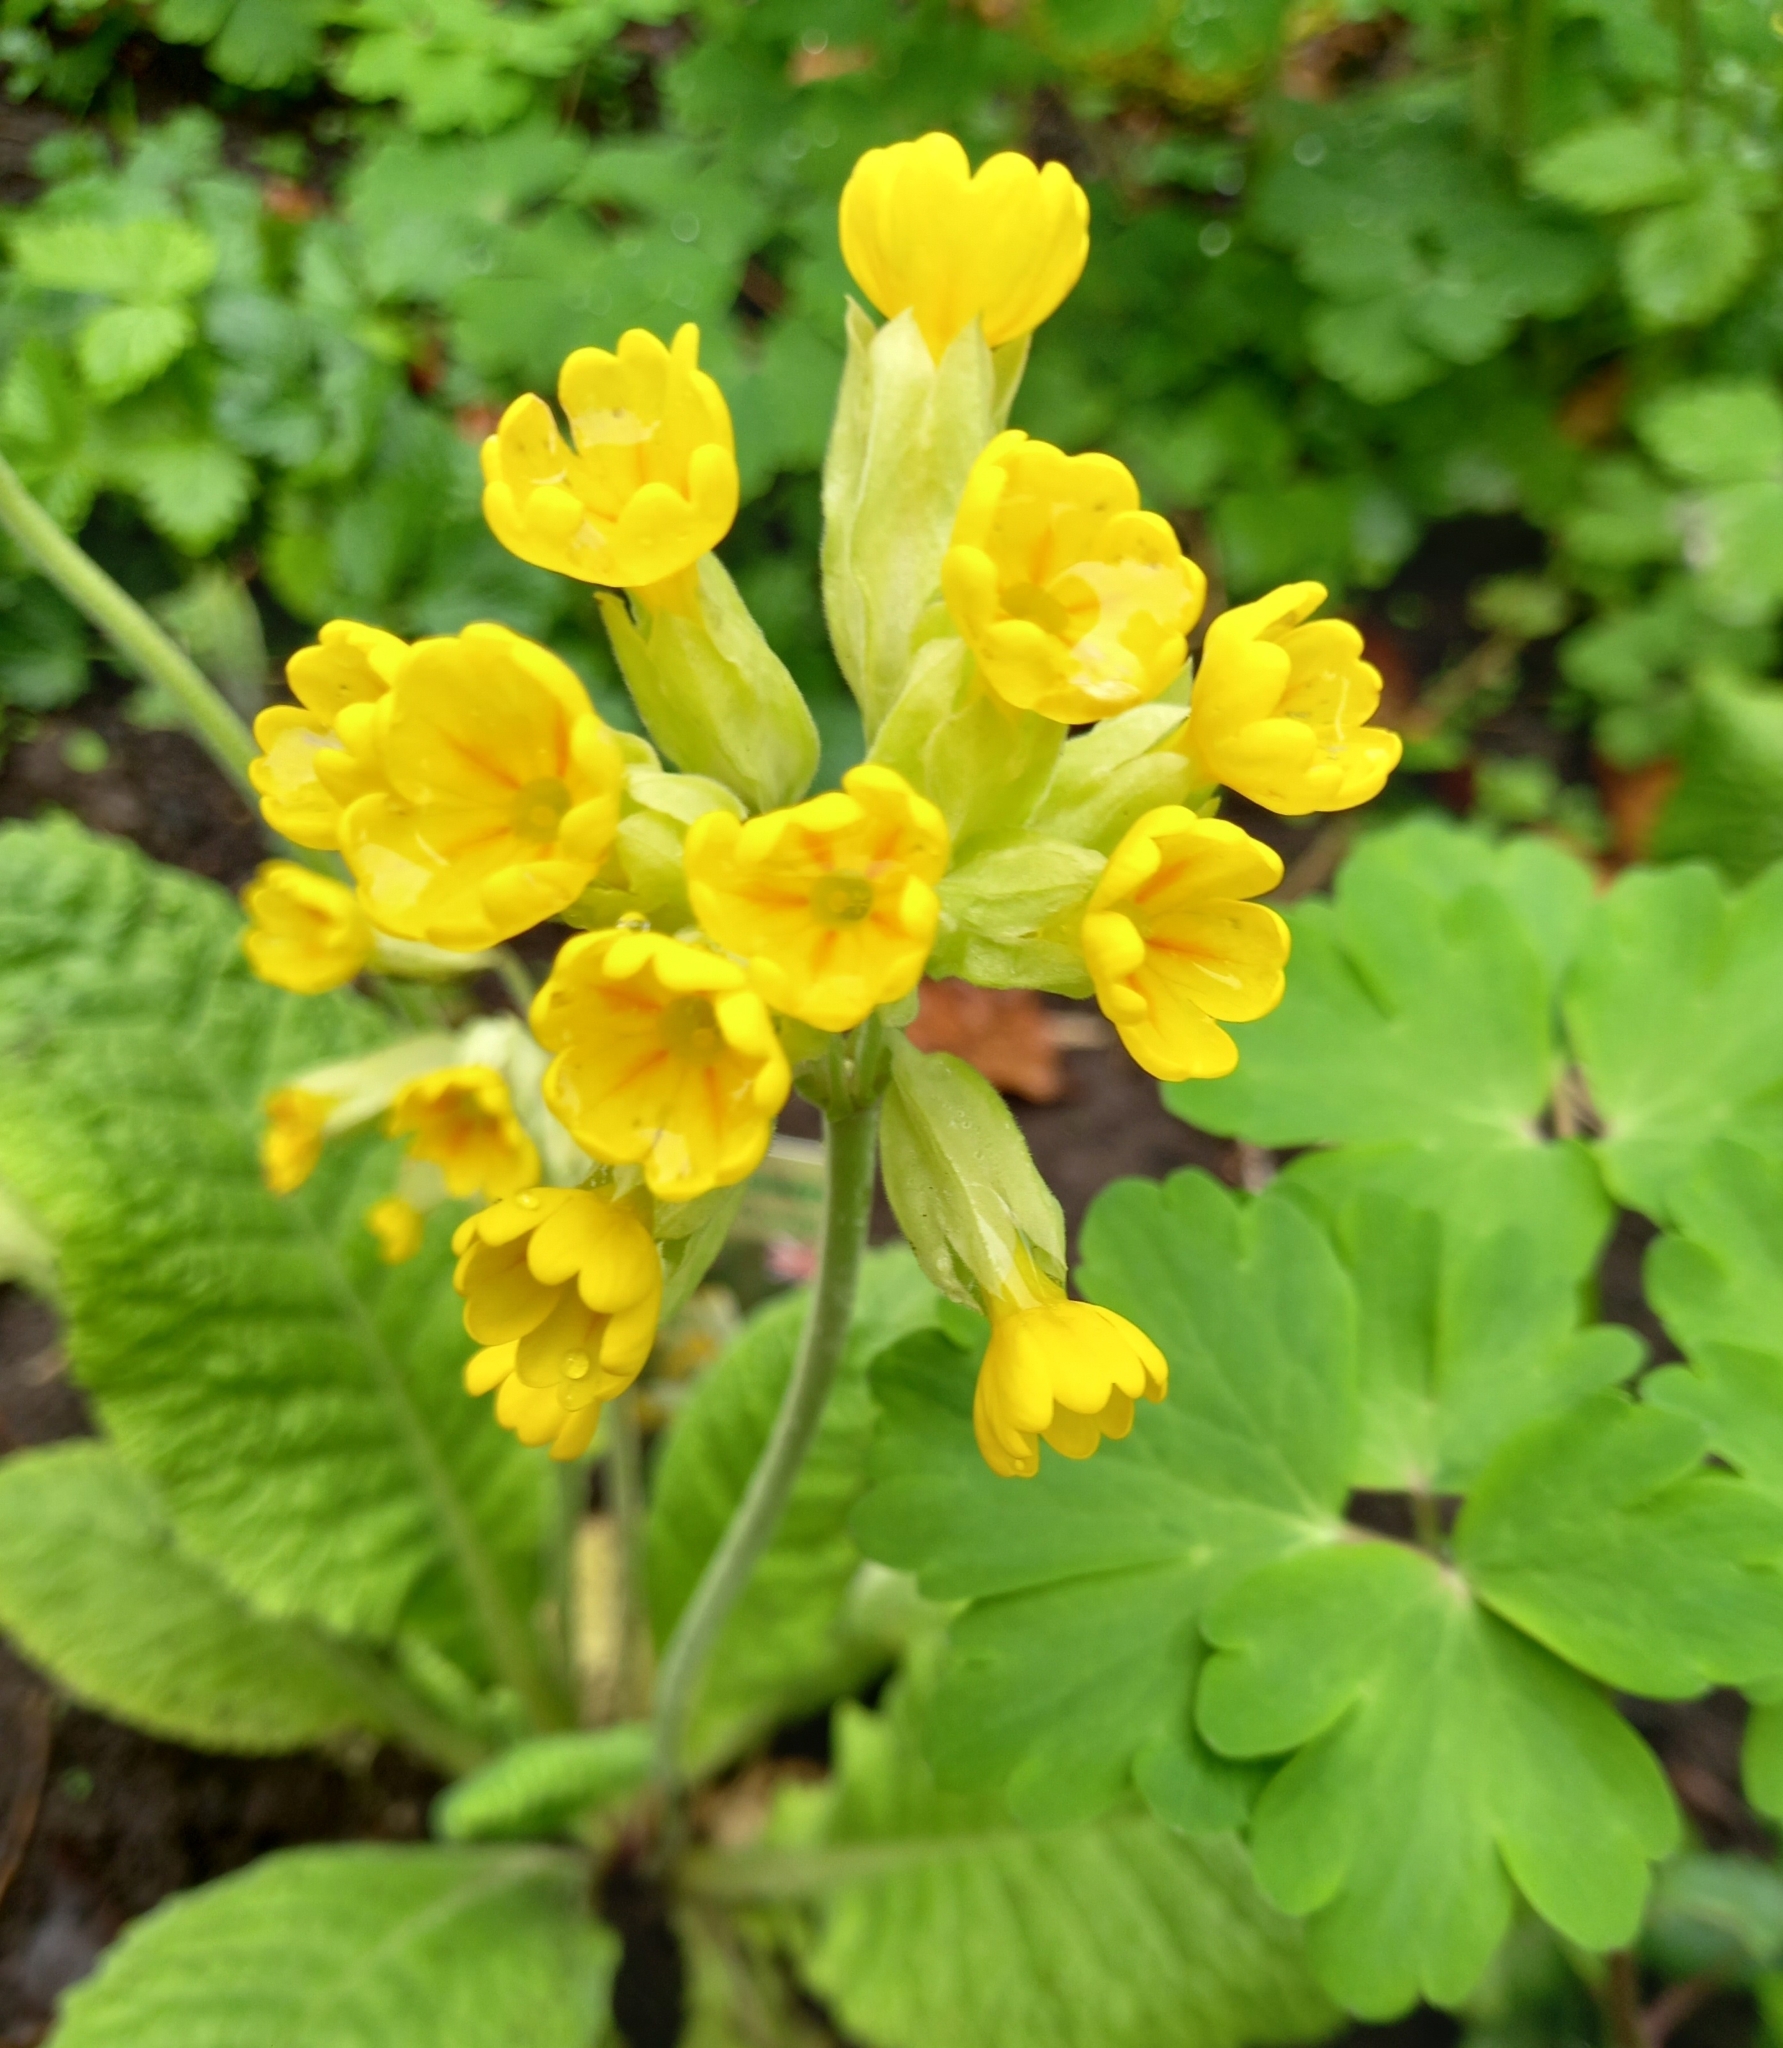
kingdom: Plantae
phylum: Tracheophyta
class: Magnoliopsida
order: Ericales
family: Primulaceae
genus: Primula
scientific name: Primula veris
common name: Cowslip
